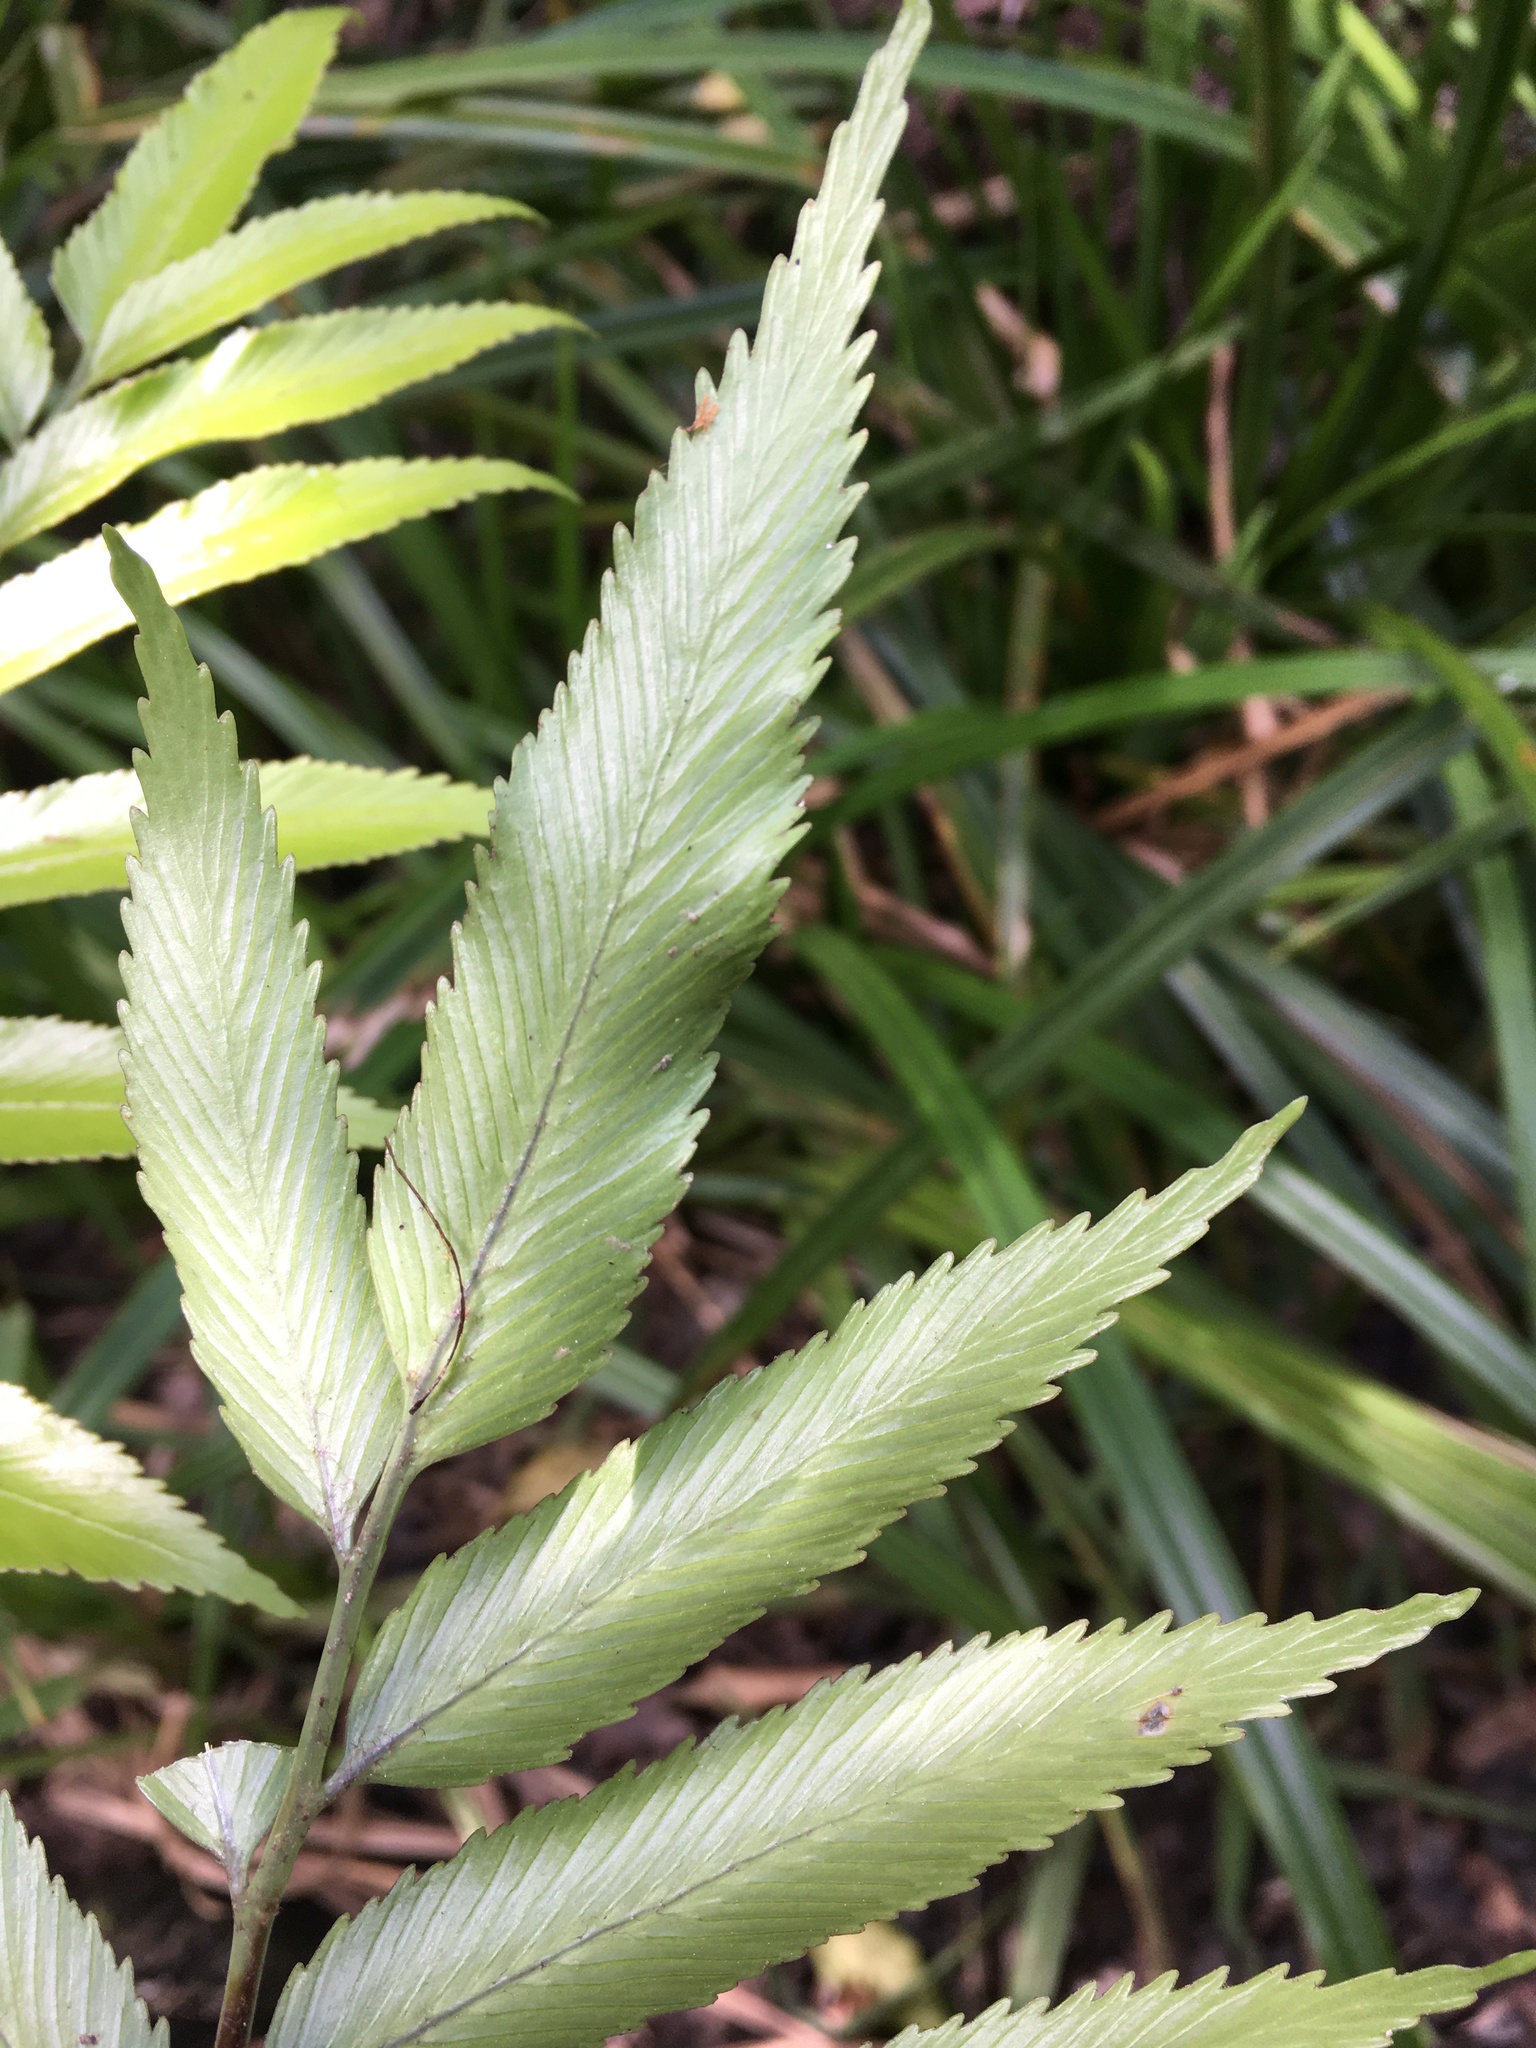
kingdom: Plantae
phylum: Tracheophyta
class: Polypodiopsida
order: Polypodiales
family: Aspleniaceae
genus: Asplenium
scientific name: Asplenium oblongifolium
